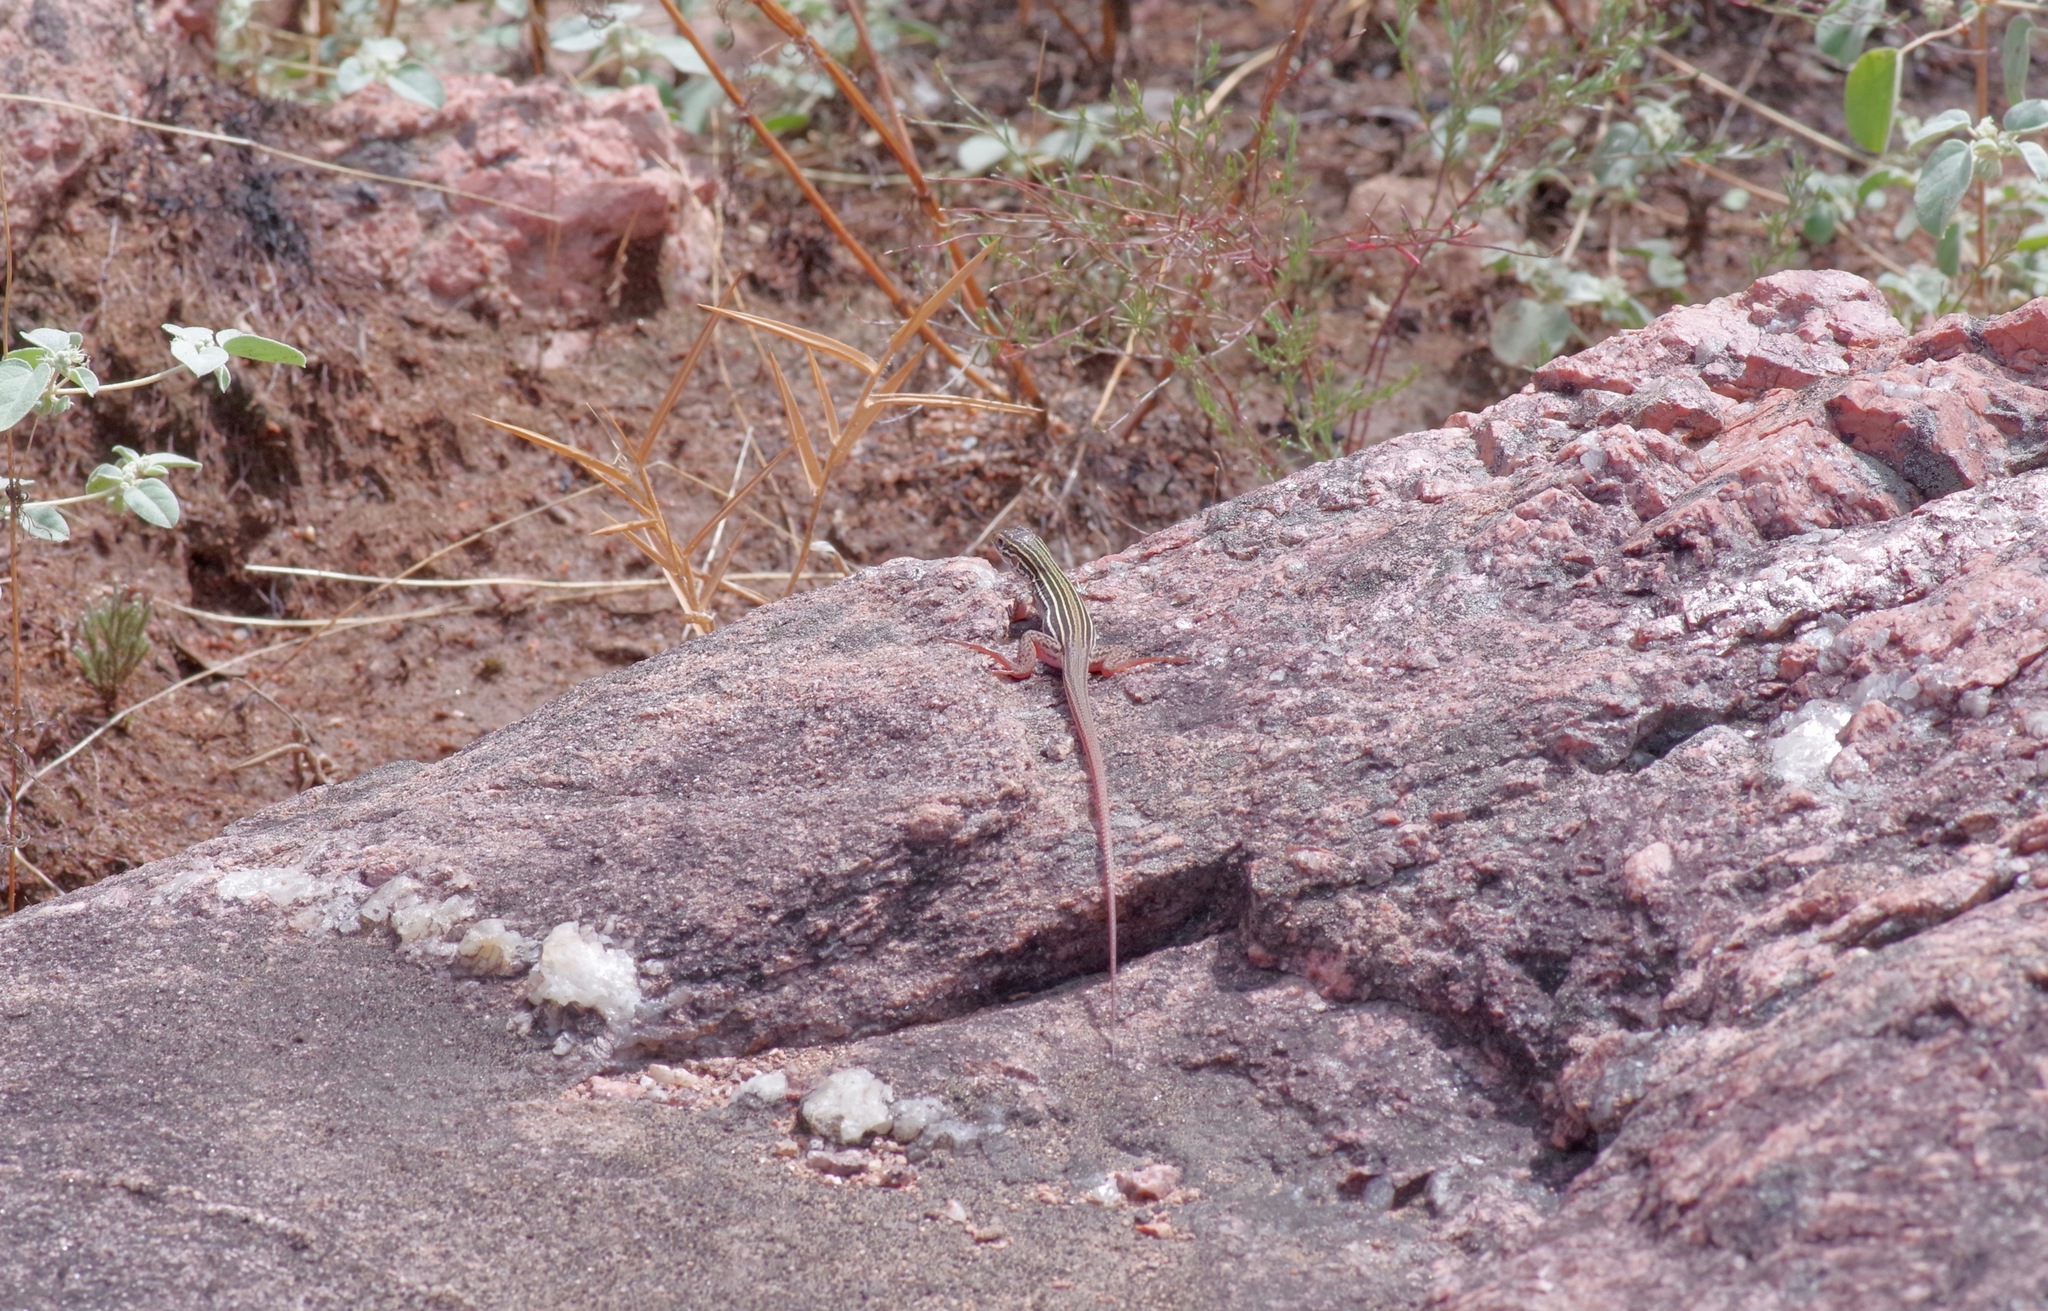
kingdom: Animalia
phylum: Chordata
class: Squamata
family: Teiidae
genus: Aspidoscelis
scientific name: Aspidoscelis gularis
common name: Eastern spotted whiptail
